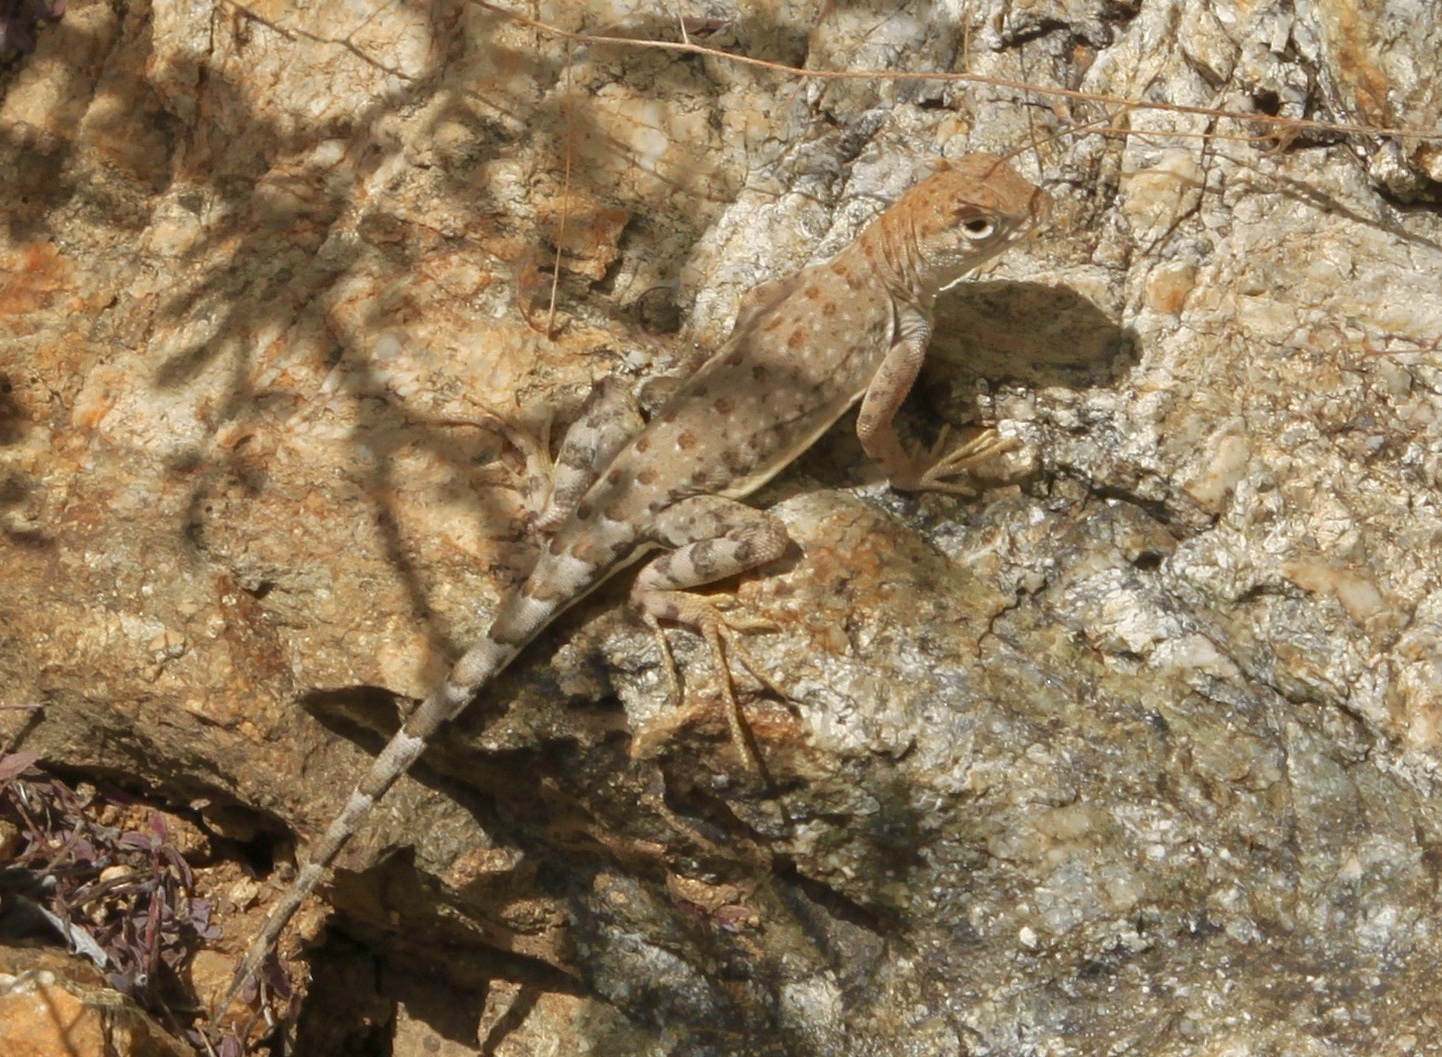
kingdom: Animalia
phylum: Chordata
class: Squamata
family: Phrynosomatidae
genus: Cophosaurus
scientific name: Cophosaurus texanus
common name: Greater earless lizard
